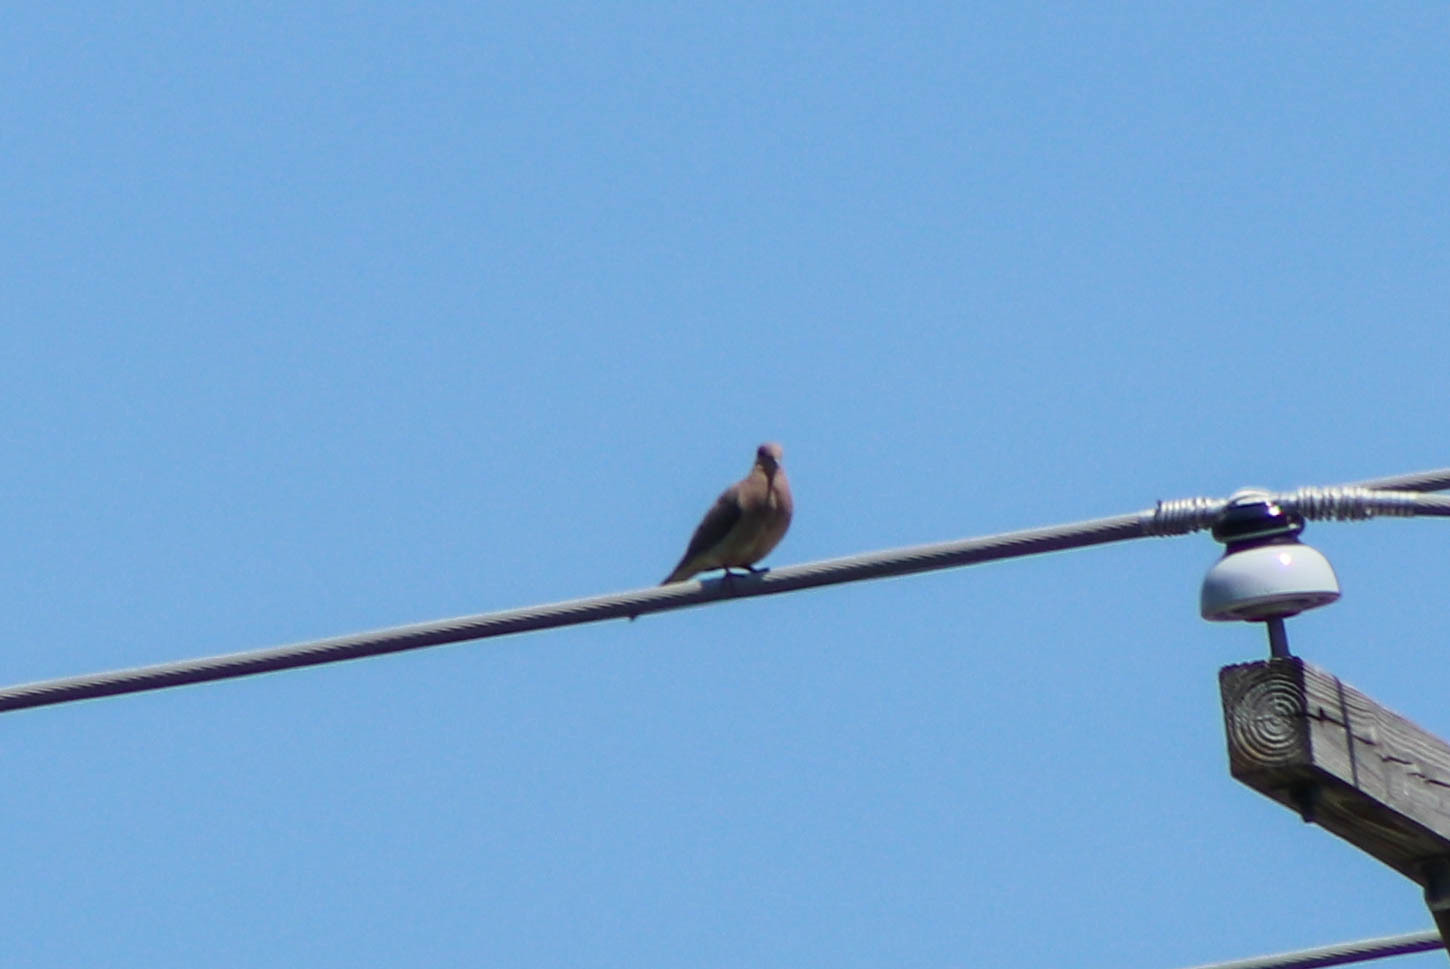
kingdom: Animalia
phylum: Chordata
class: Aves
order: Columbiformes
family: Columbidae
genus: Zenaida
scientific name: Zenaida macroura
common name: Mourning dove
